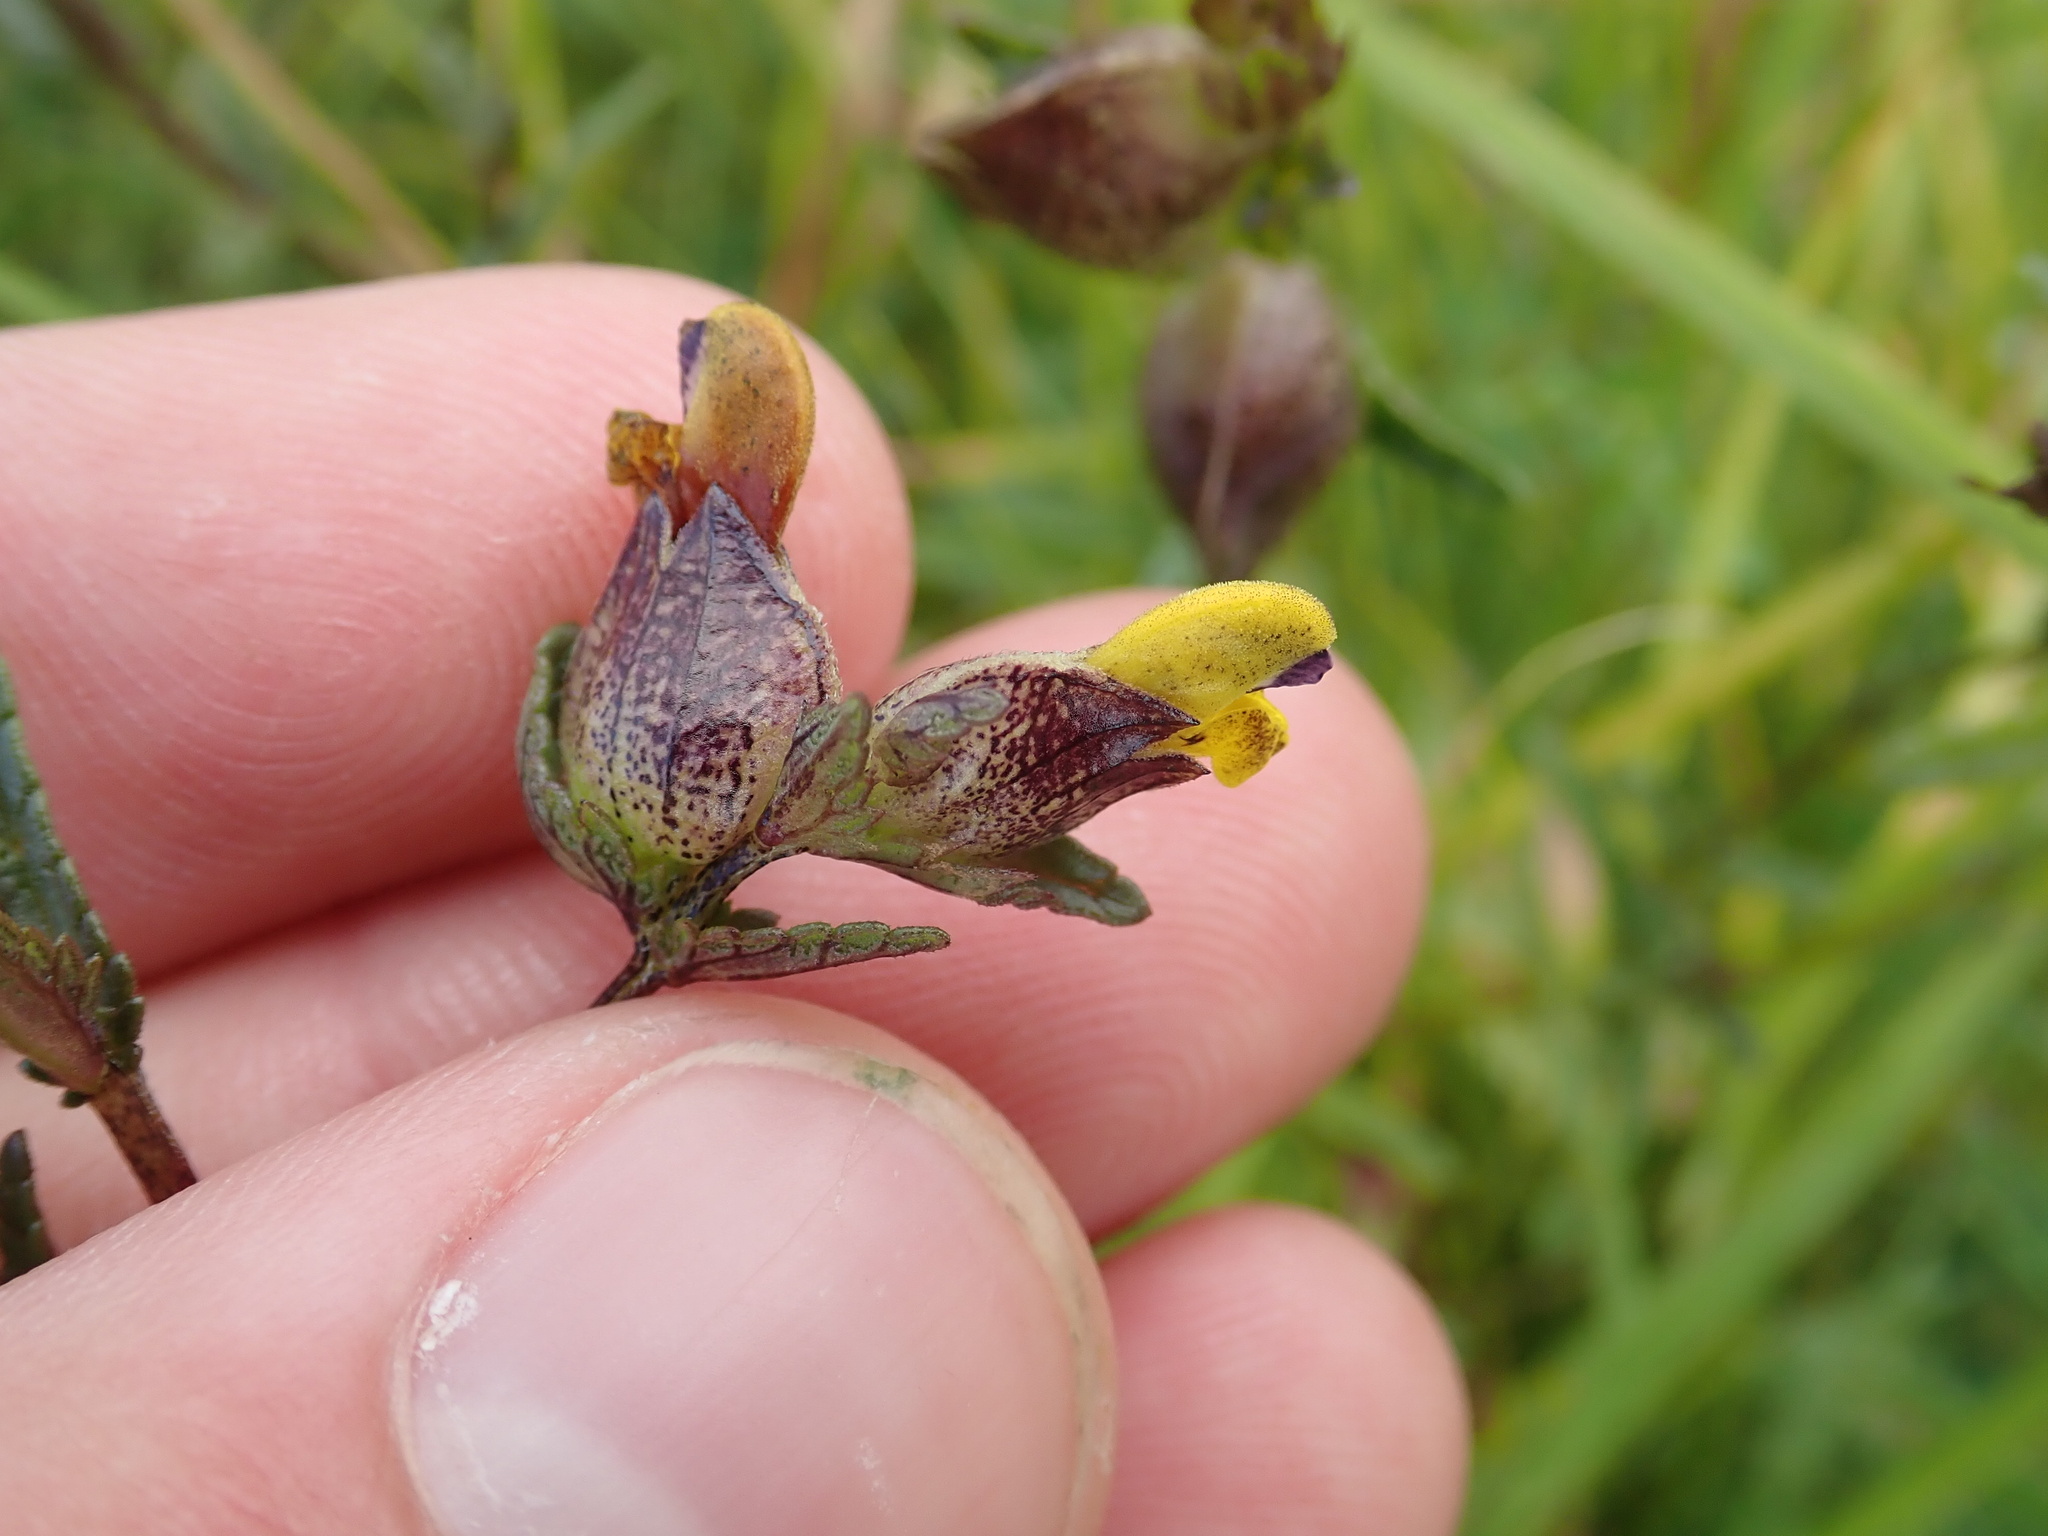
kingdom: Plantae
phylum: Tracheophyta
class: Magnoliopsida
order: Lamiales
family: Orobanchaceae
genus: Rhinanthus
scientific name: Rhinanthus minor
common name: Yellow-rattle
